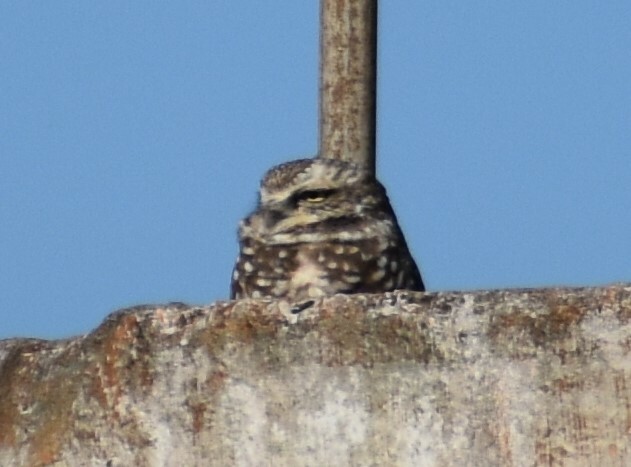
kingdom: Animalia
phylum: Chordata
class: Aves
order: Strigiformes
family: Strigidae
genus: Athene
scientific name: Athene cunicularia
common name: Burrowing owl
